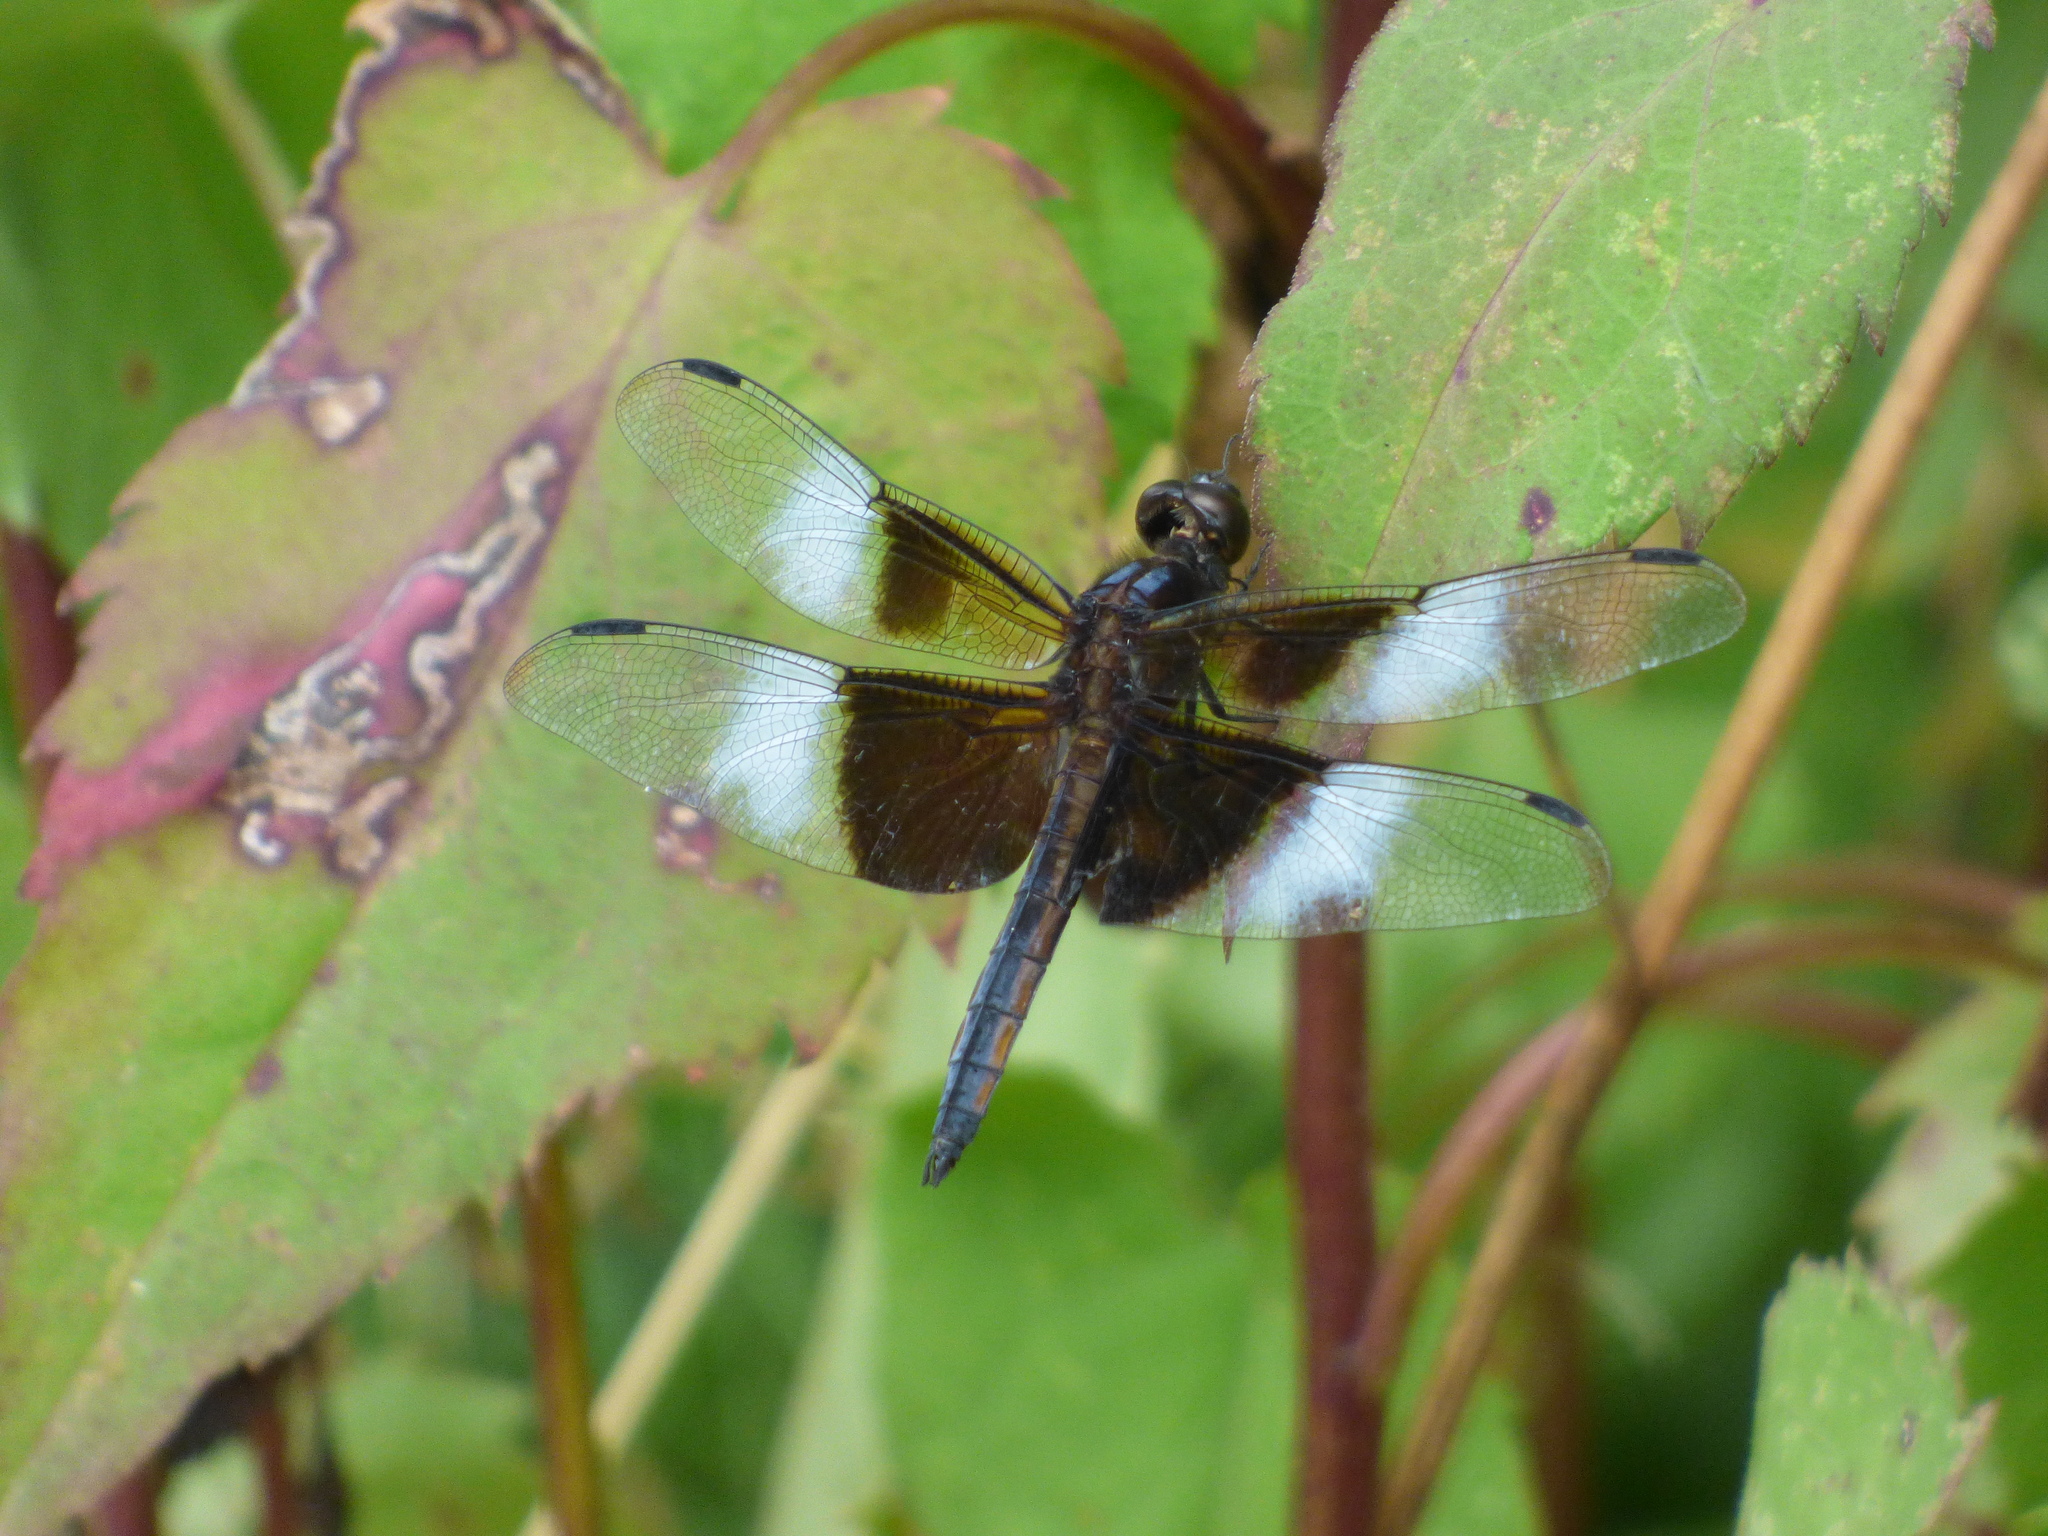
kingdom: Animalia
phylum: Arthropoda
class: Insecta
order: Odonata
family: Libellulidae
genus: Libellula
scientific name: Libellula luctuosa
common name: Widow skimmer
